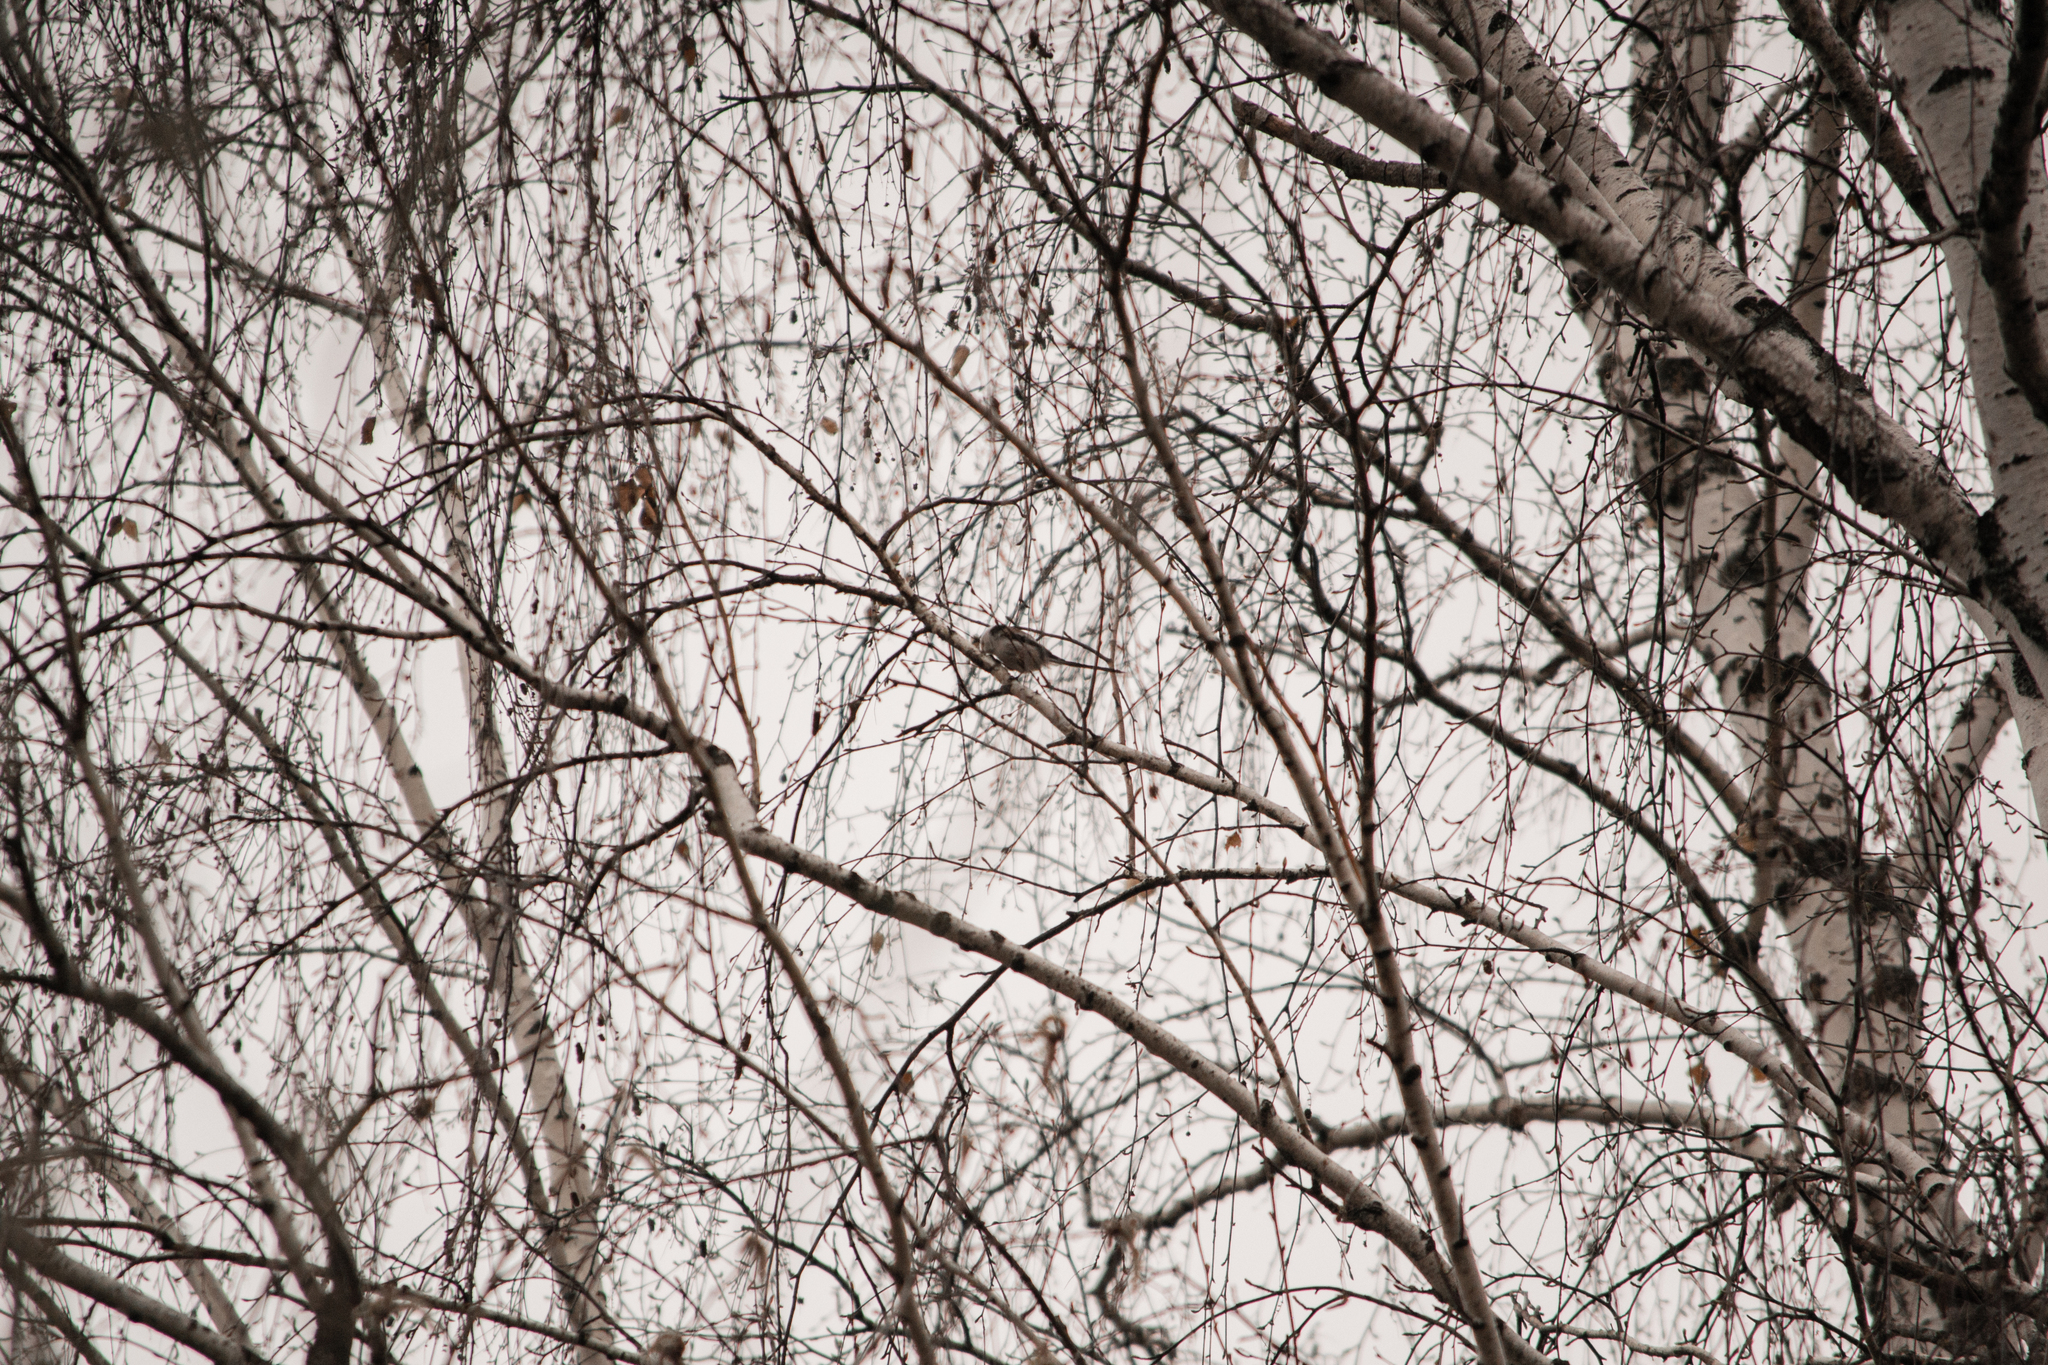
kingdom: Animalia
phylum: Chordata
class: Aves
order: Passeriformes
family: Aegithalidae
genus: Aegithalos
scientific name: Aegithalos caudatus
